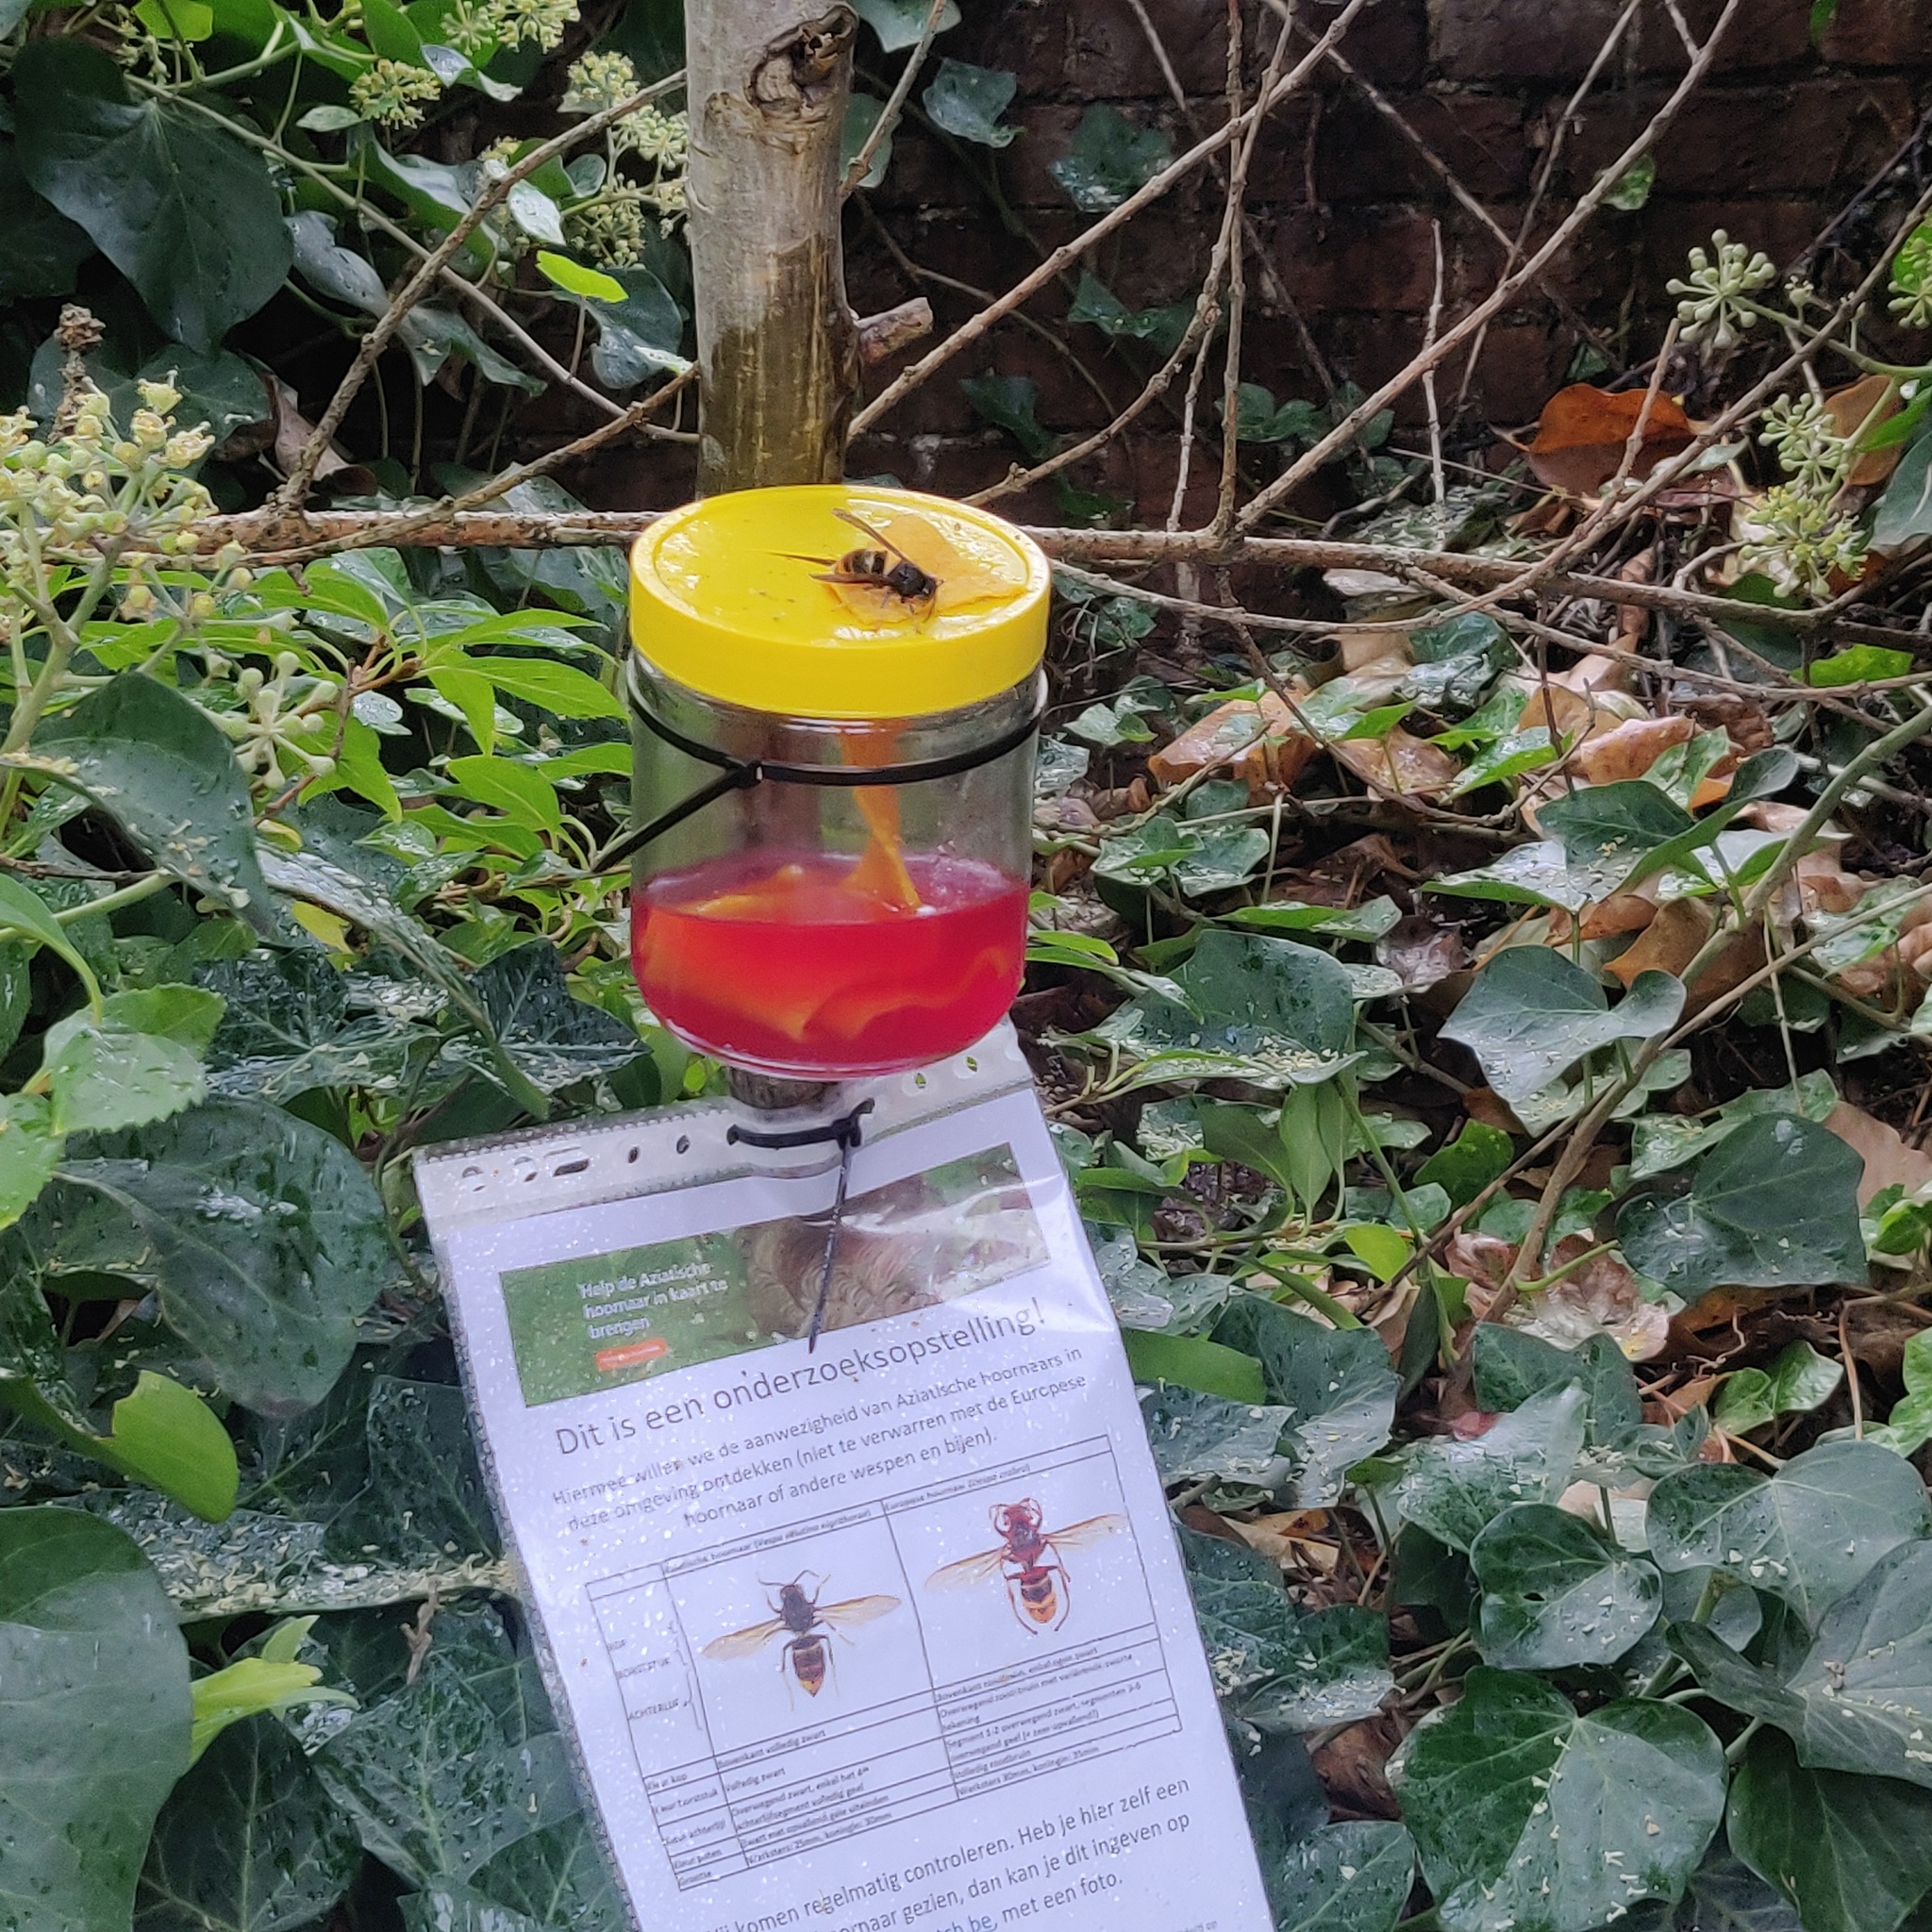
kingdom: Animalia
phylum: Arthropoda
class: Insecta
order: Hymenoptera
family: Vespidae
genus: Vespa
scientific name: Vespa velutina
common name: Asian hornet
